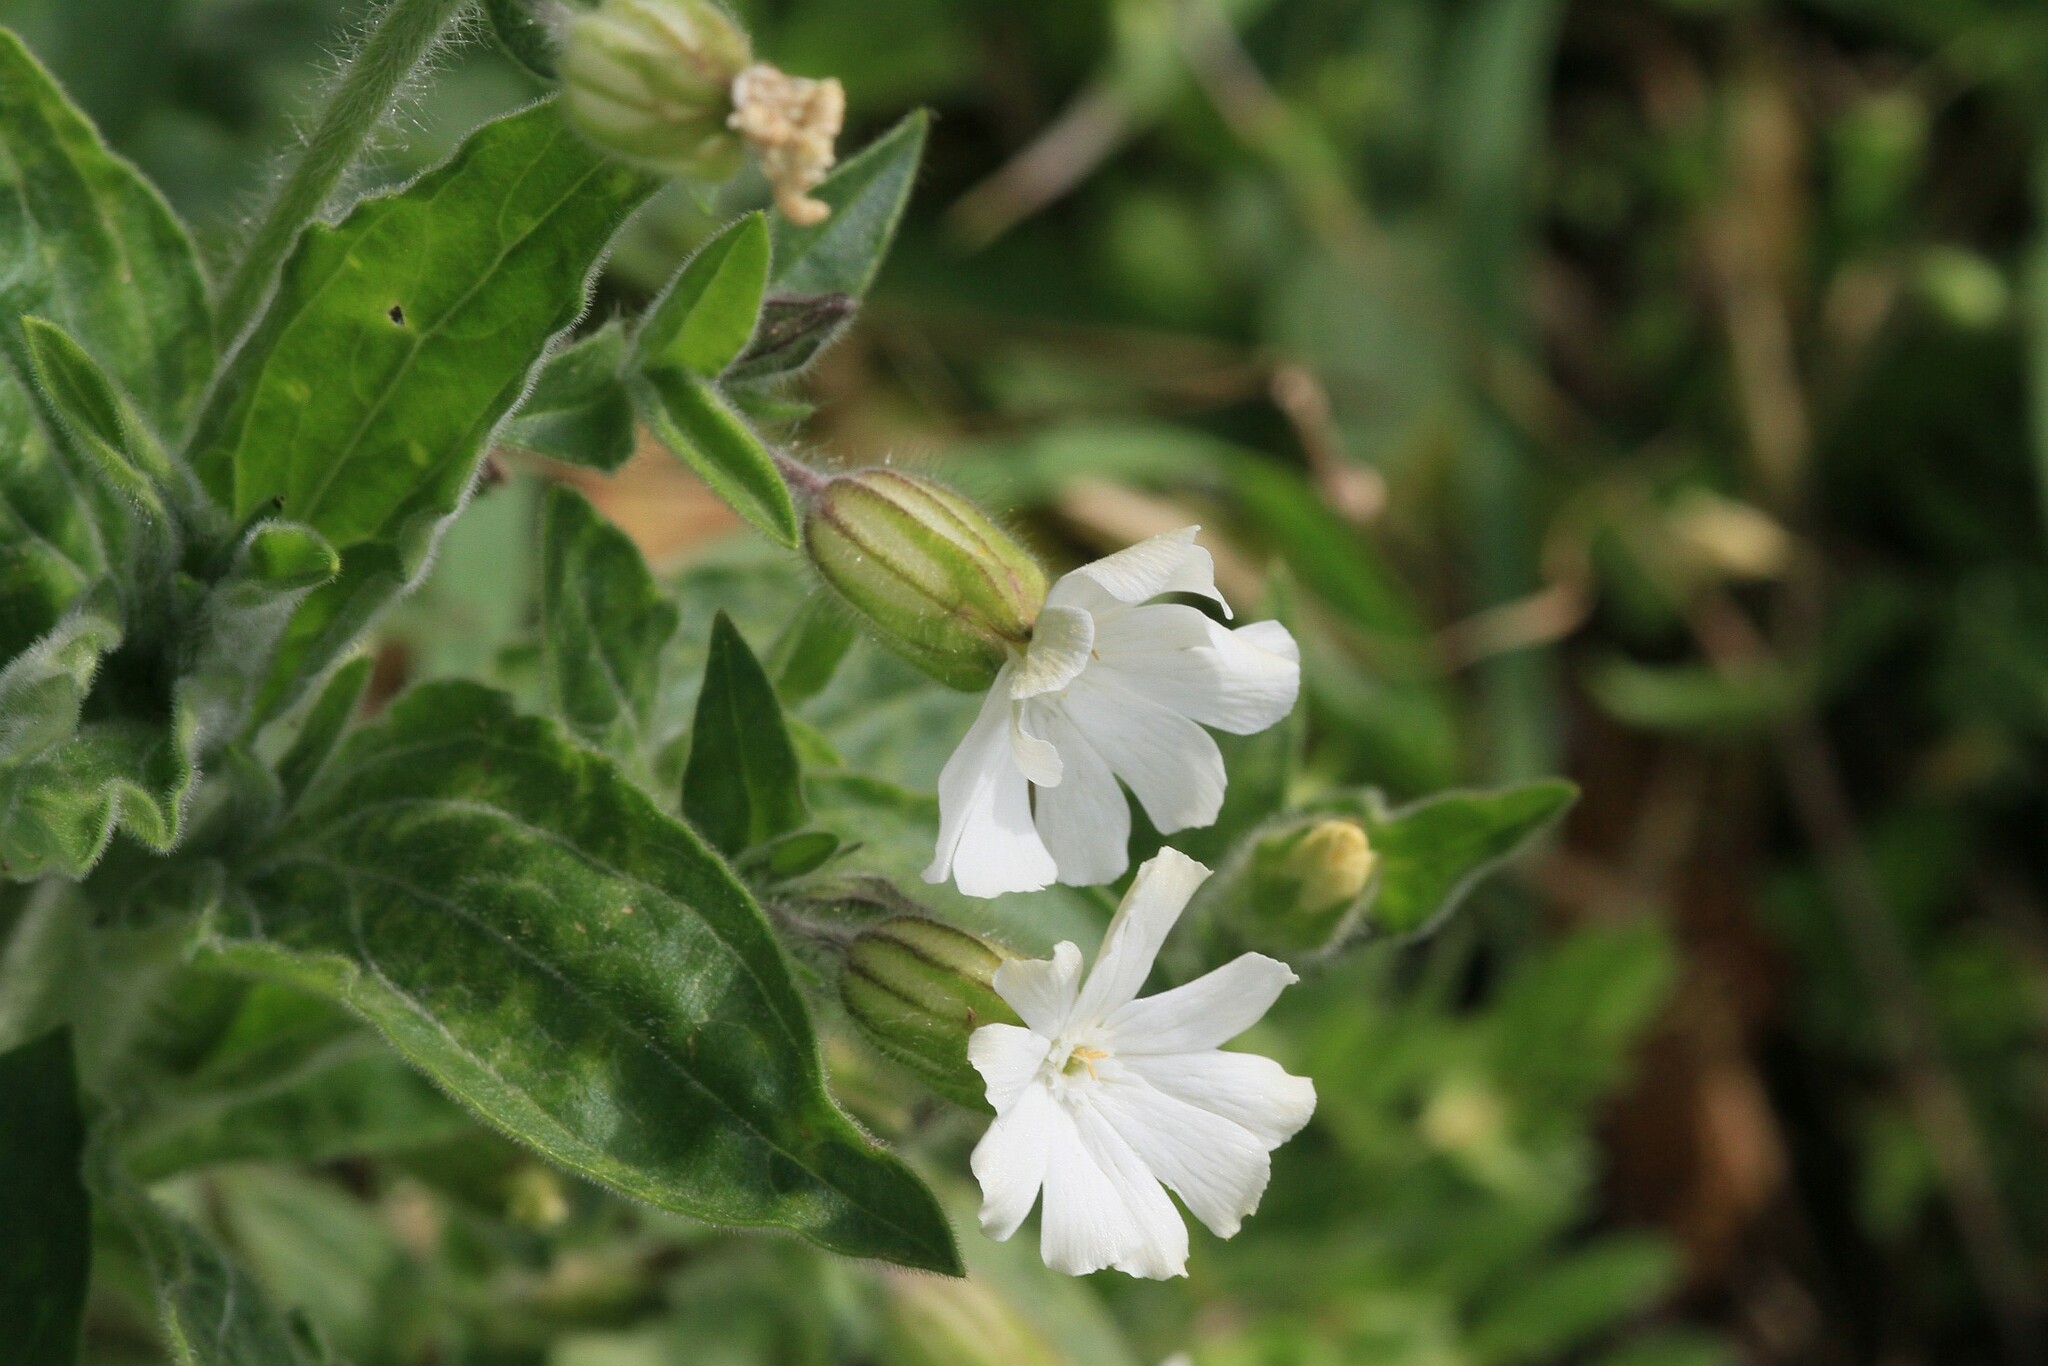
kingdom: Plantae
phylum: Tracheophyta
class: Magnoliopsida
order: Caryophyllales
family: Caryophyllaceae
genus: Silene
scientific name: Silene latifolia
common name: White campion
